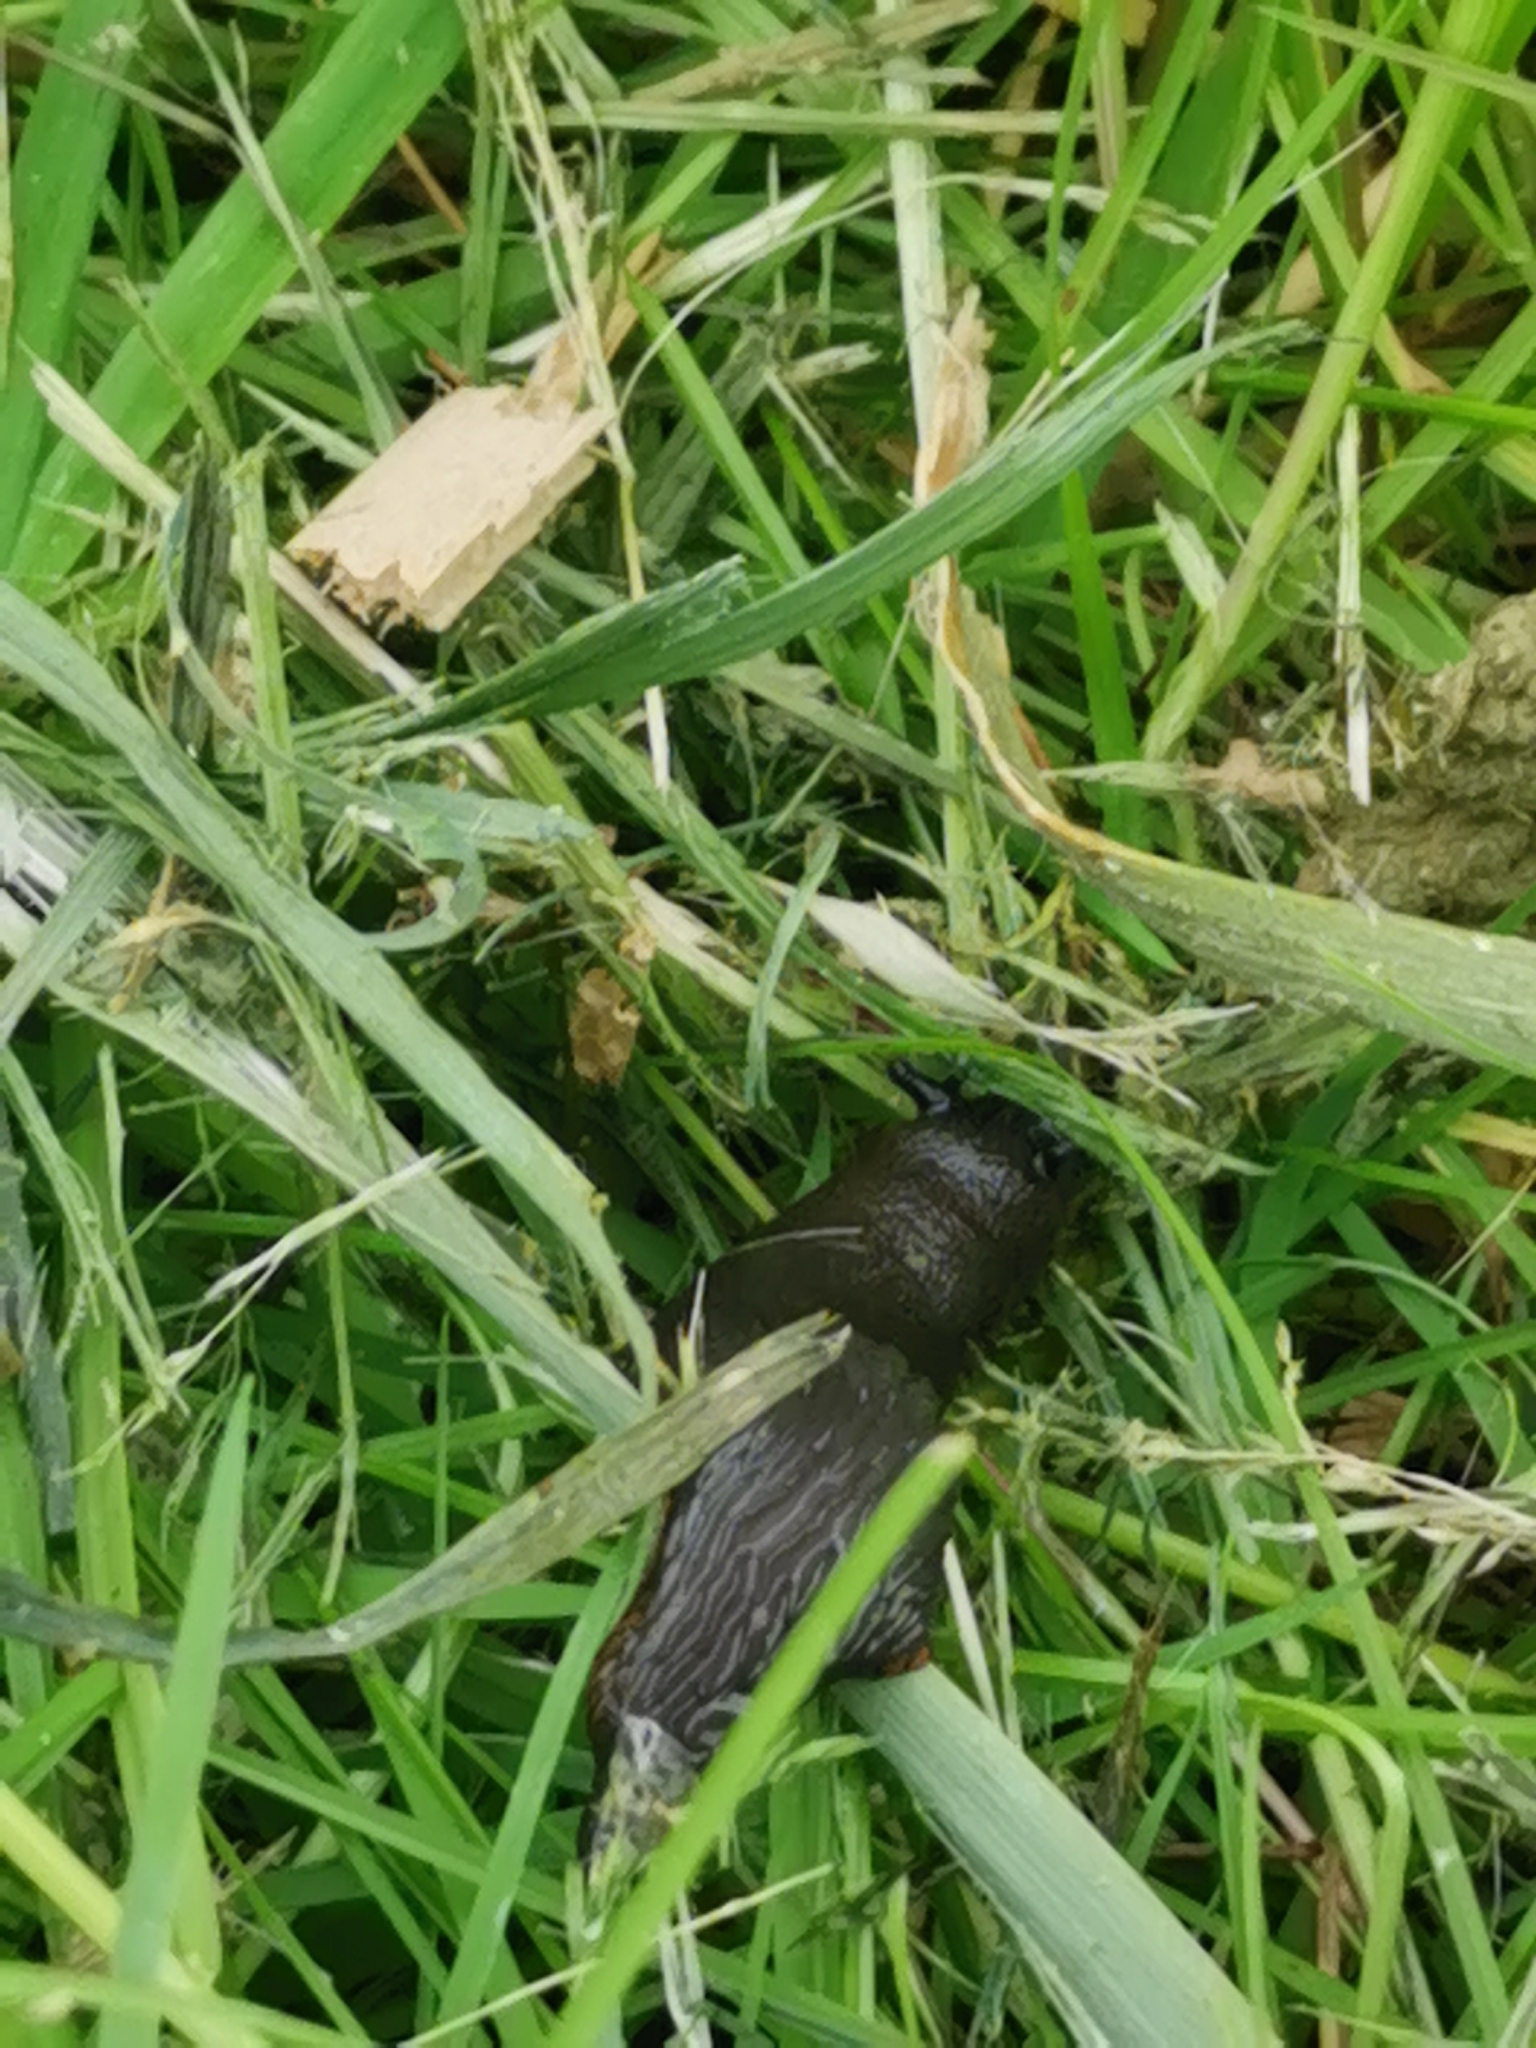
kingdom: Animalia
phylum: Mollusca
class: Gastropoda
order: Stylommatophora
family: Arionidae
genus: Arion
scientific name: Arion ater
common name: Black arion
